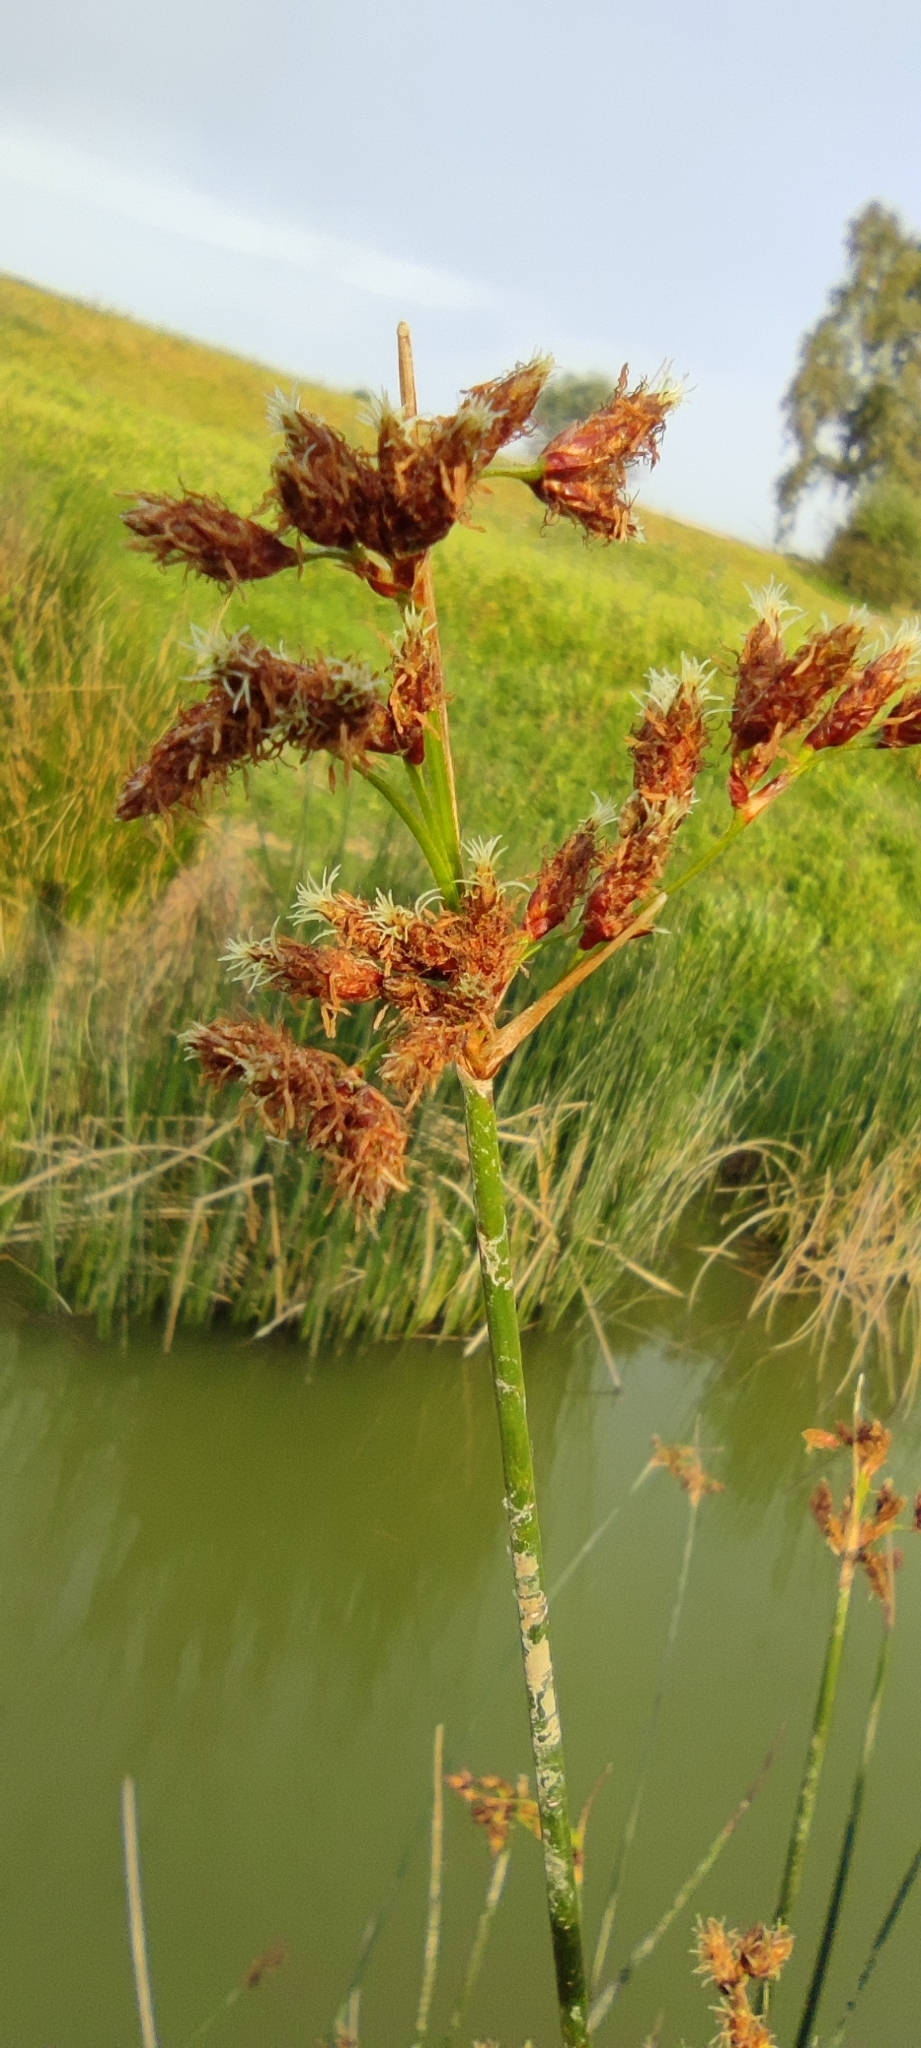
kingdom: Plantae
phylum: Tracheophyta
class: Liliopsida
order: Poales
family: Cyperaceae
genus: Schoenoplectus
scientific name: Schoenoplectus lacustris
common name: Common club-rush
